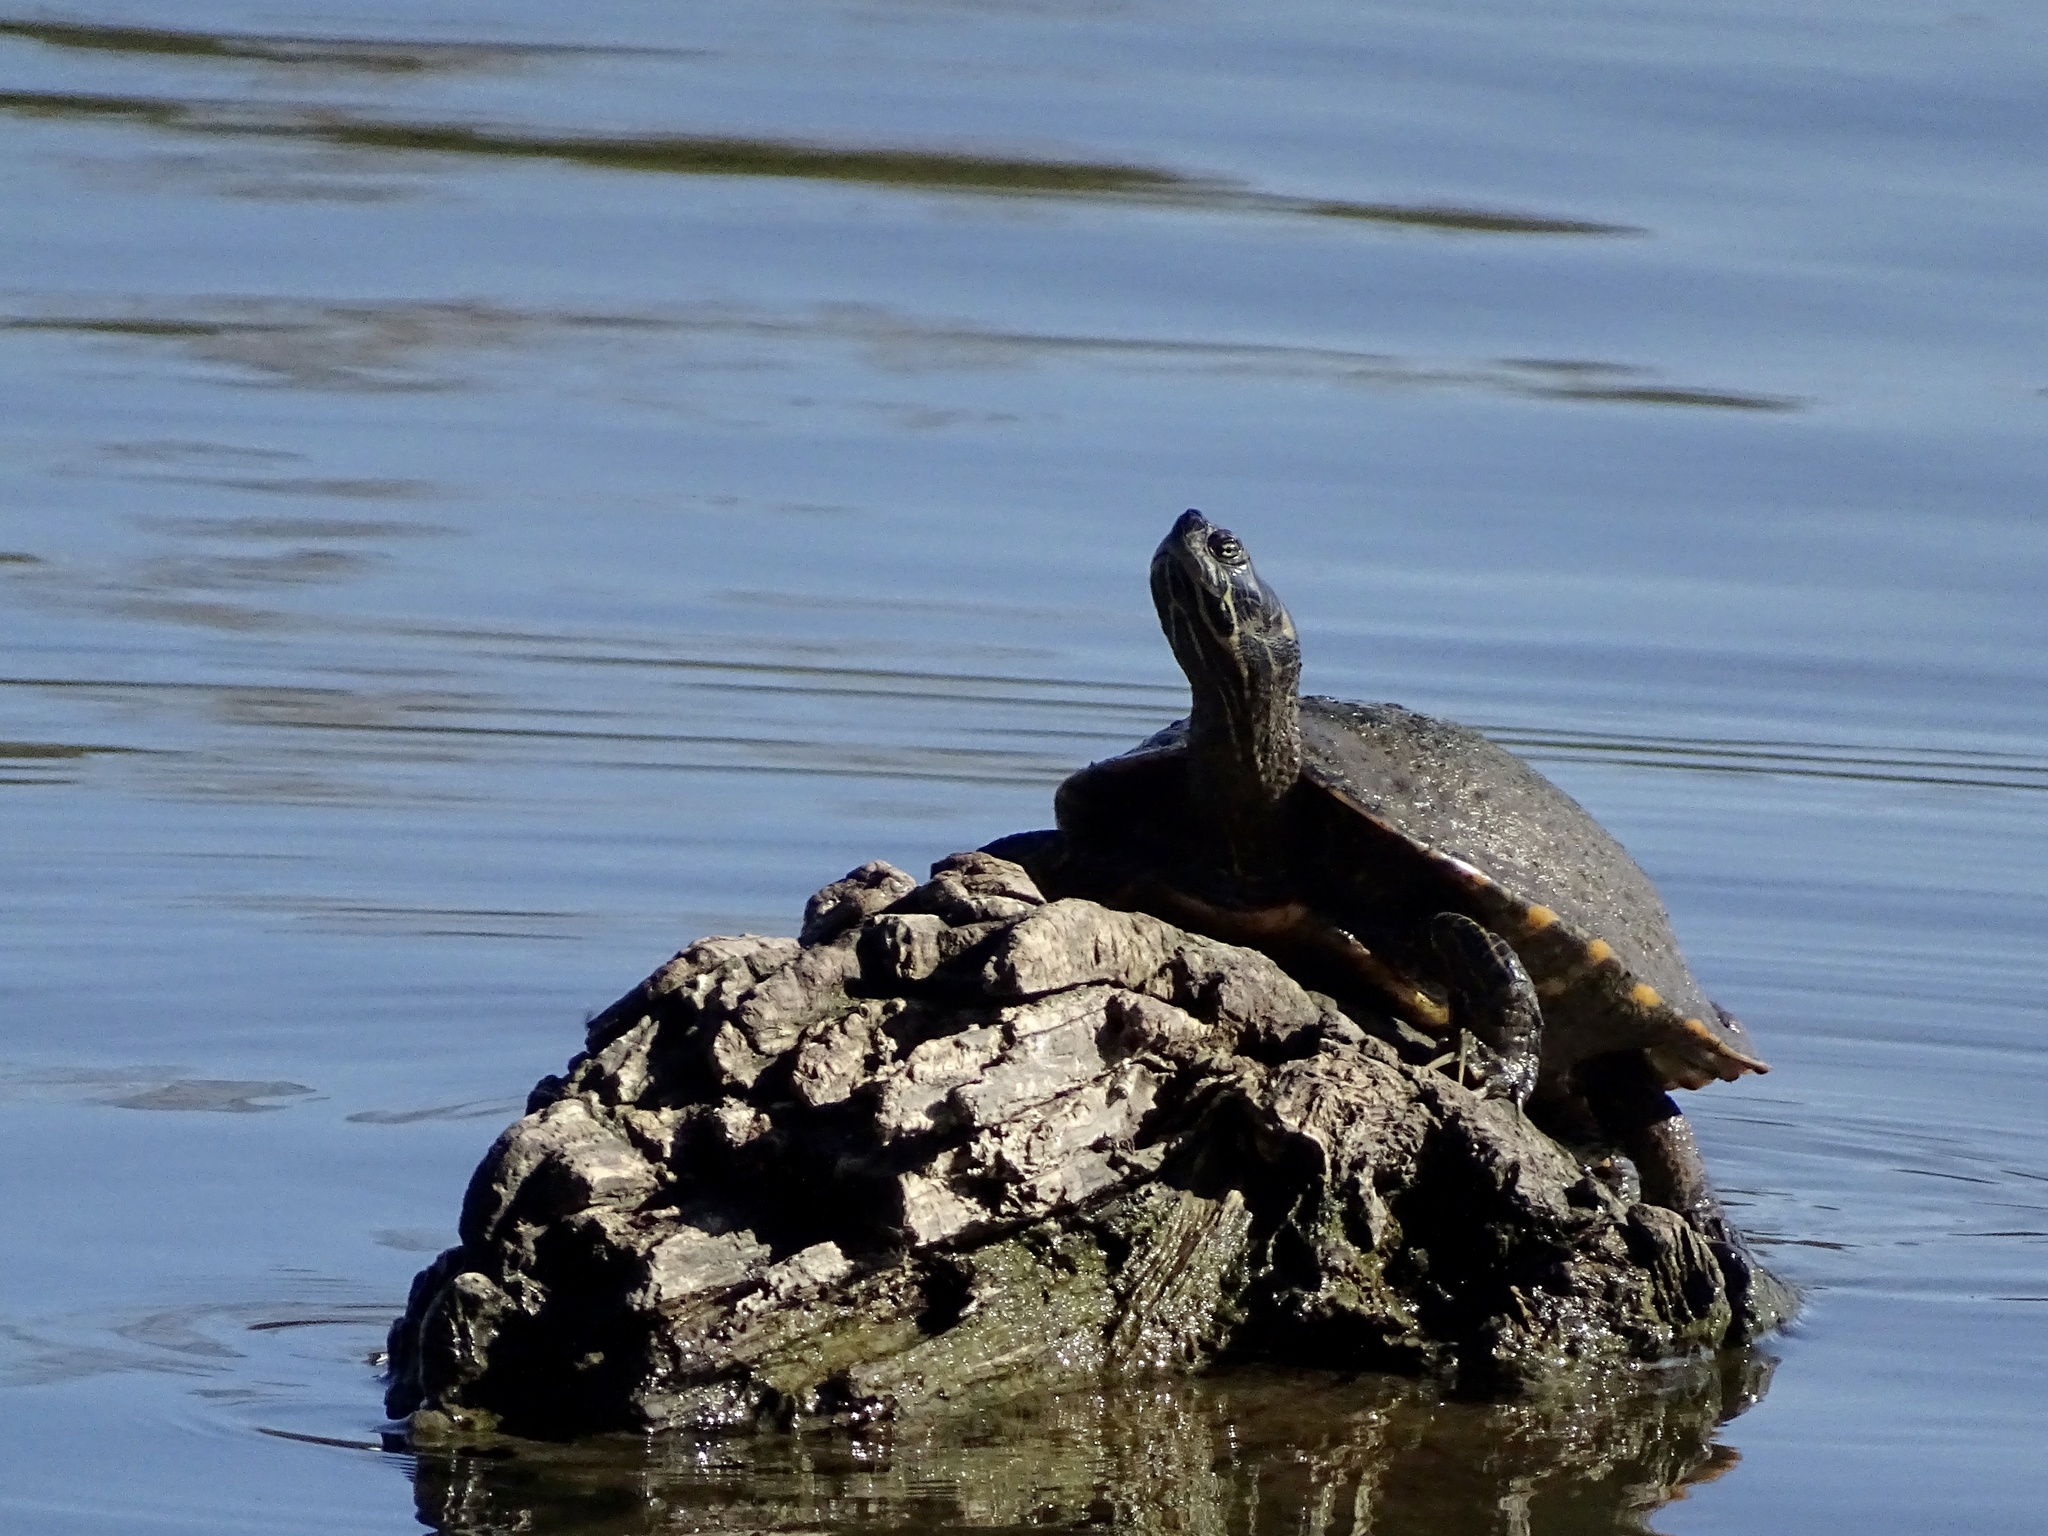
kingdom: Animalia
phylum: Chordata
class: Testudines
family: Emydidae
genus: Pseudemys
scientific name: Pseudemys concinna
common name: Eastern river cooter
